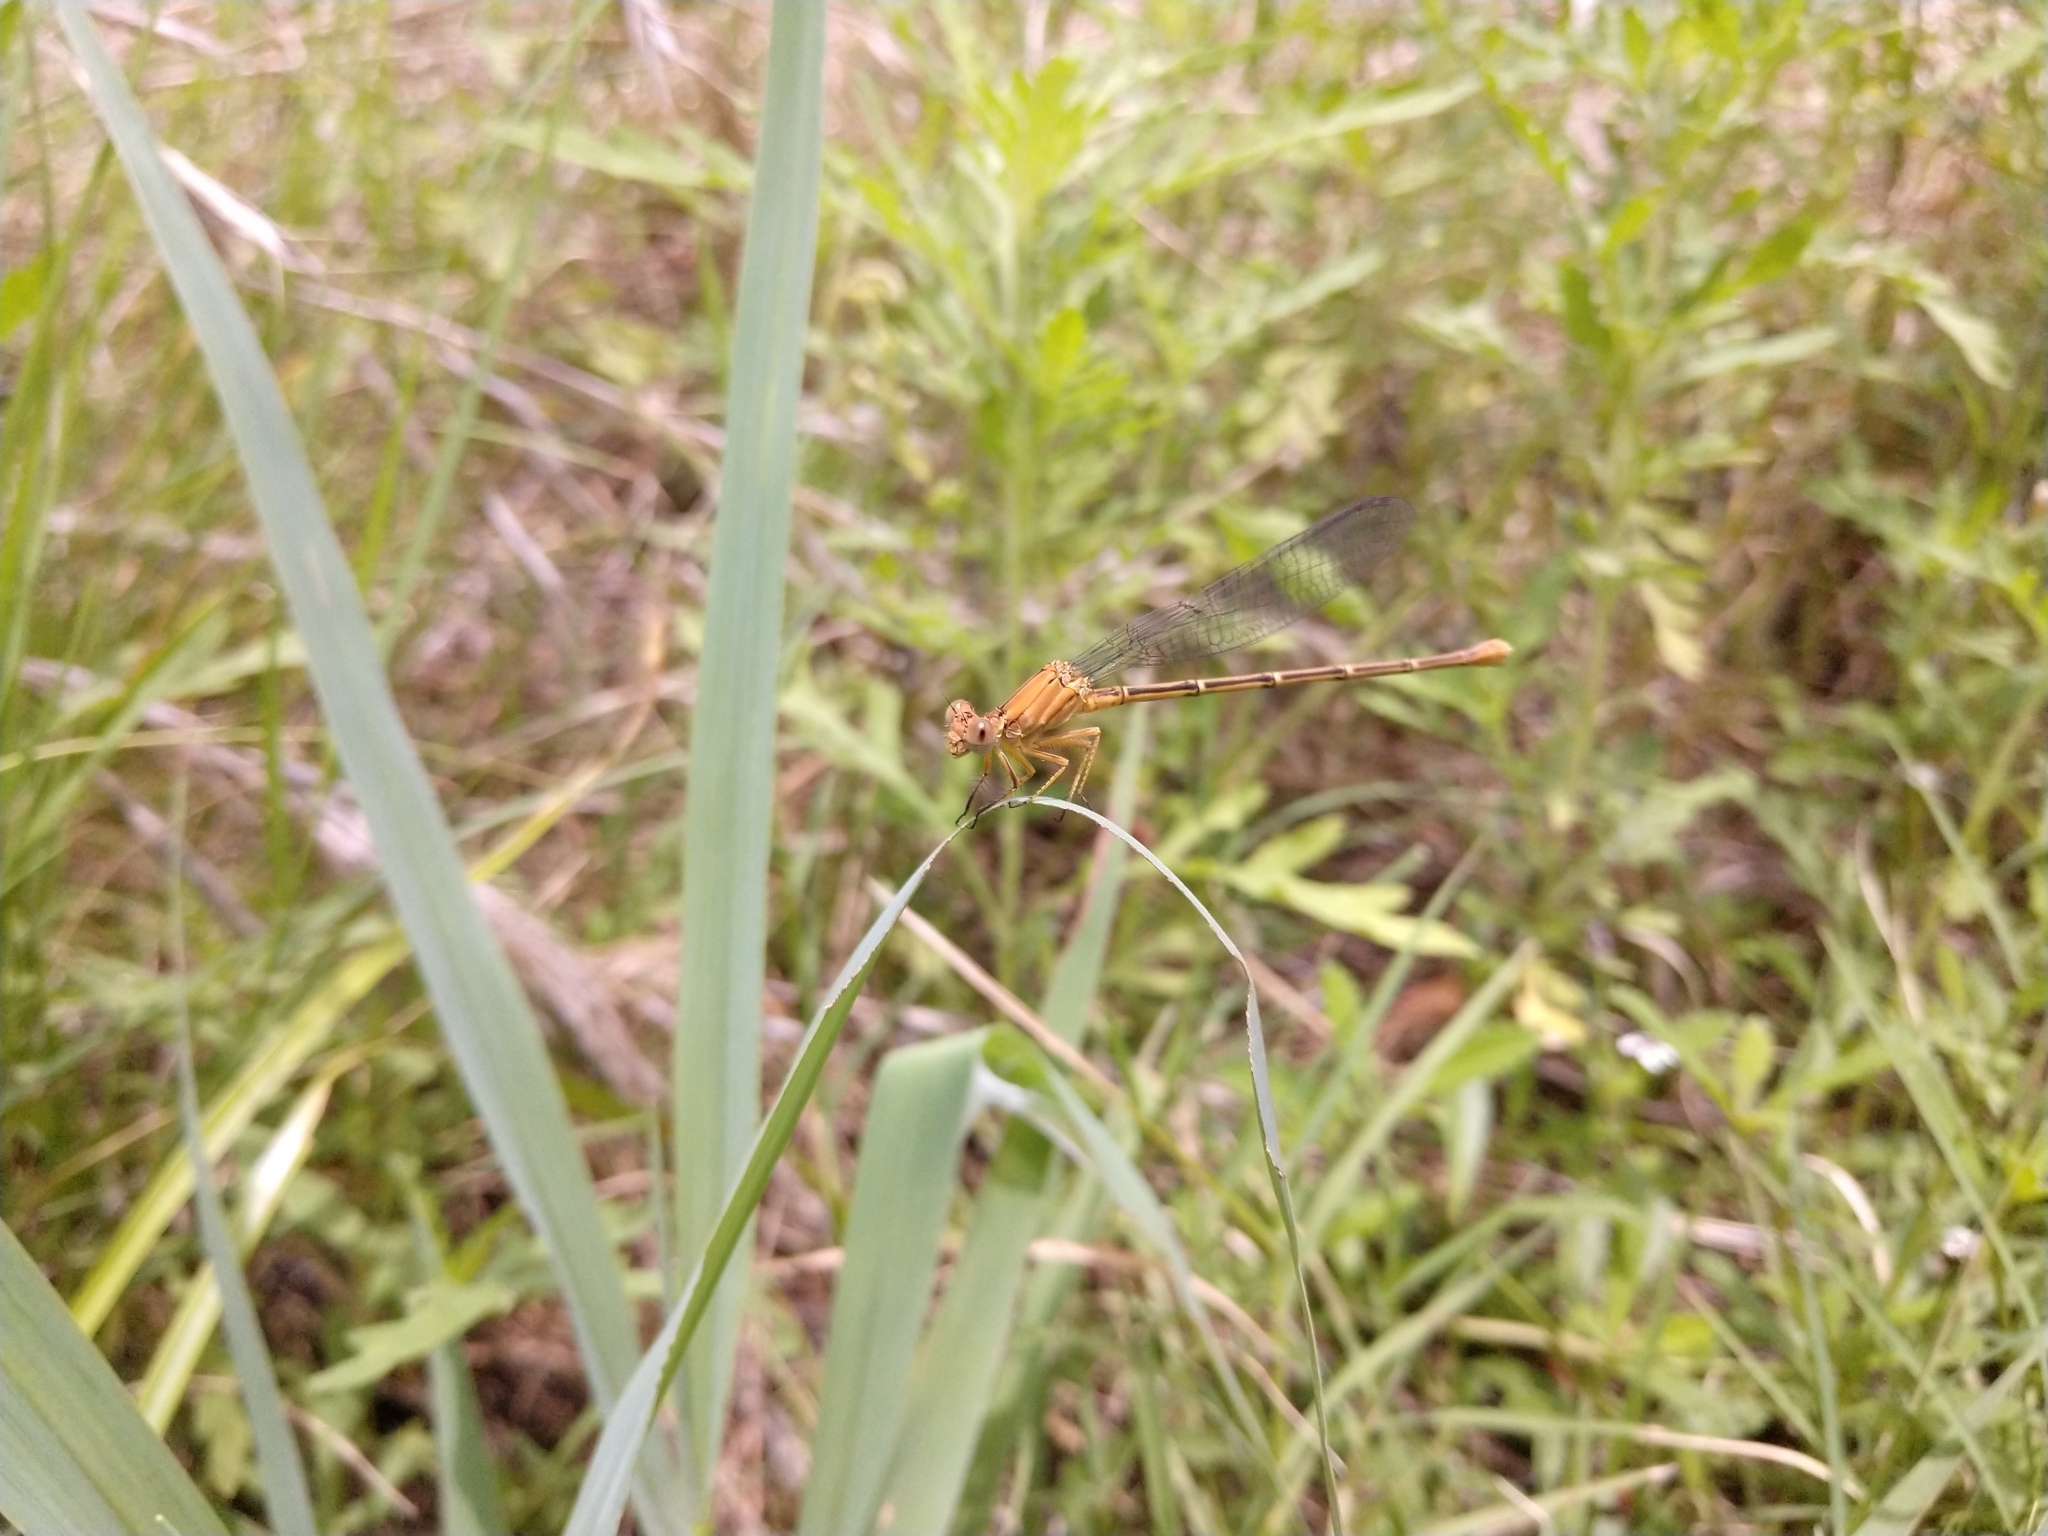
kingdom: Animalia
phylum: Arthropoda
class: Insecta
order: Odonata
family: Coenagrionidae
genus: Argia
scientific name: Argia moesta
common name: Powdered dancer
